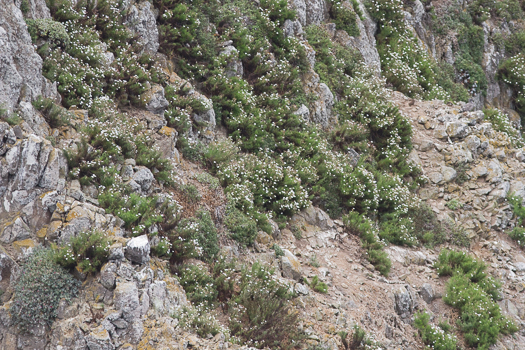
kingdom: Plantae
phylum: Tracheophyta
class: Magnoliopsida
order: Asterales
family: Asteraceae
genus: Malacothrix
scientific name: Malacothrix saxatilis
